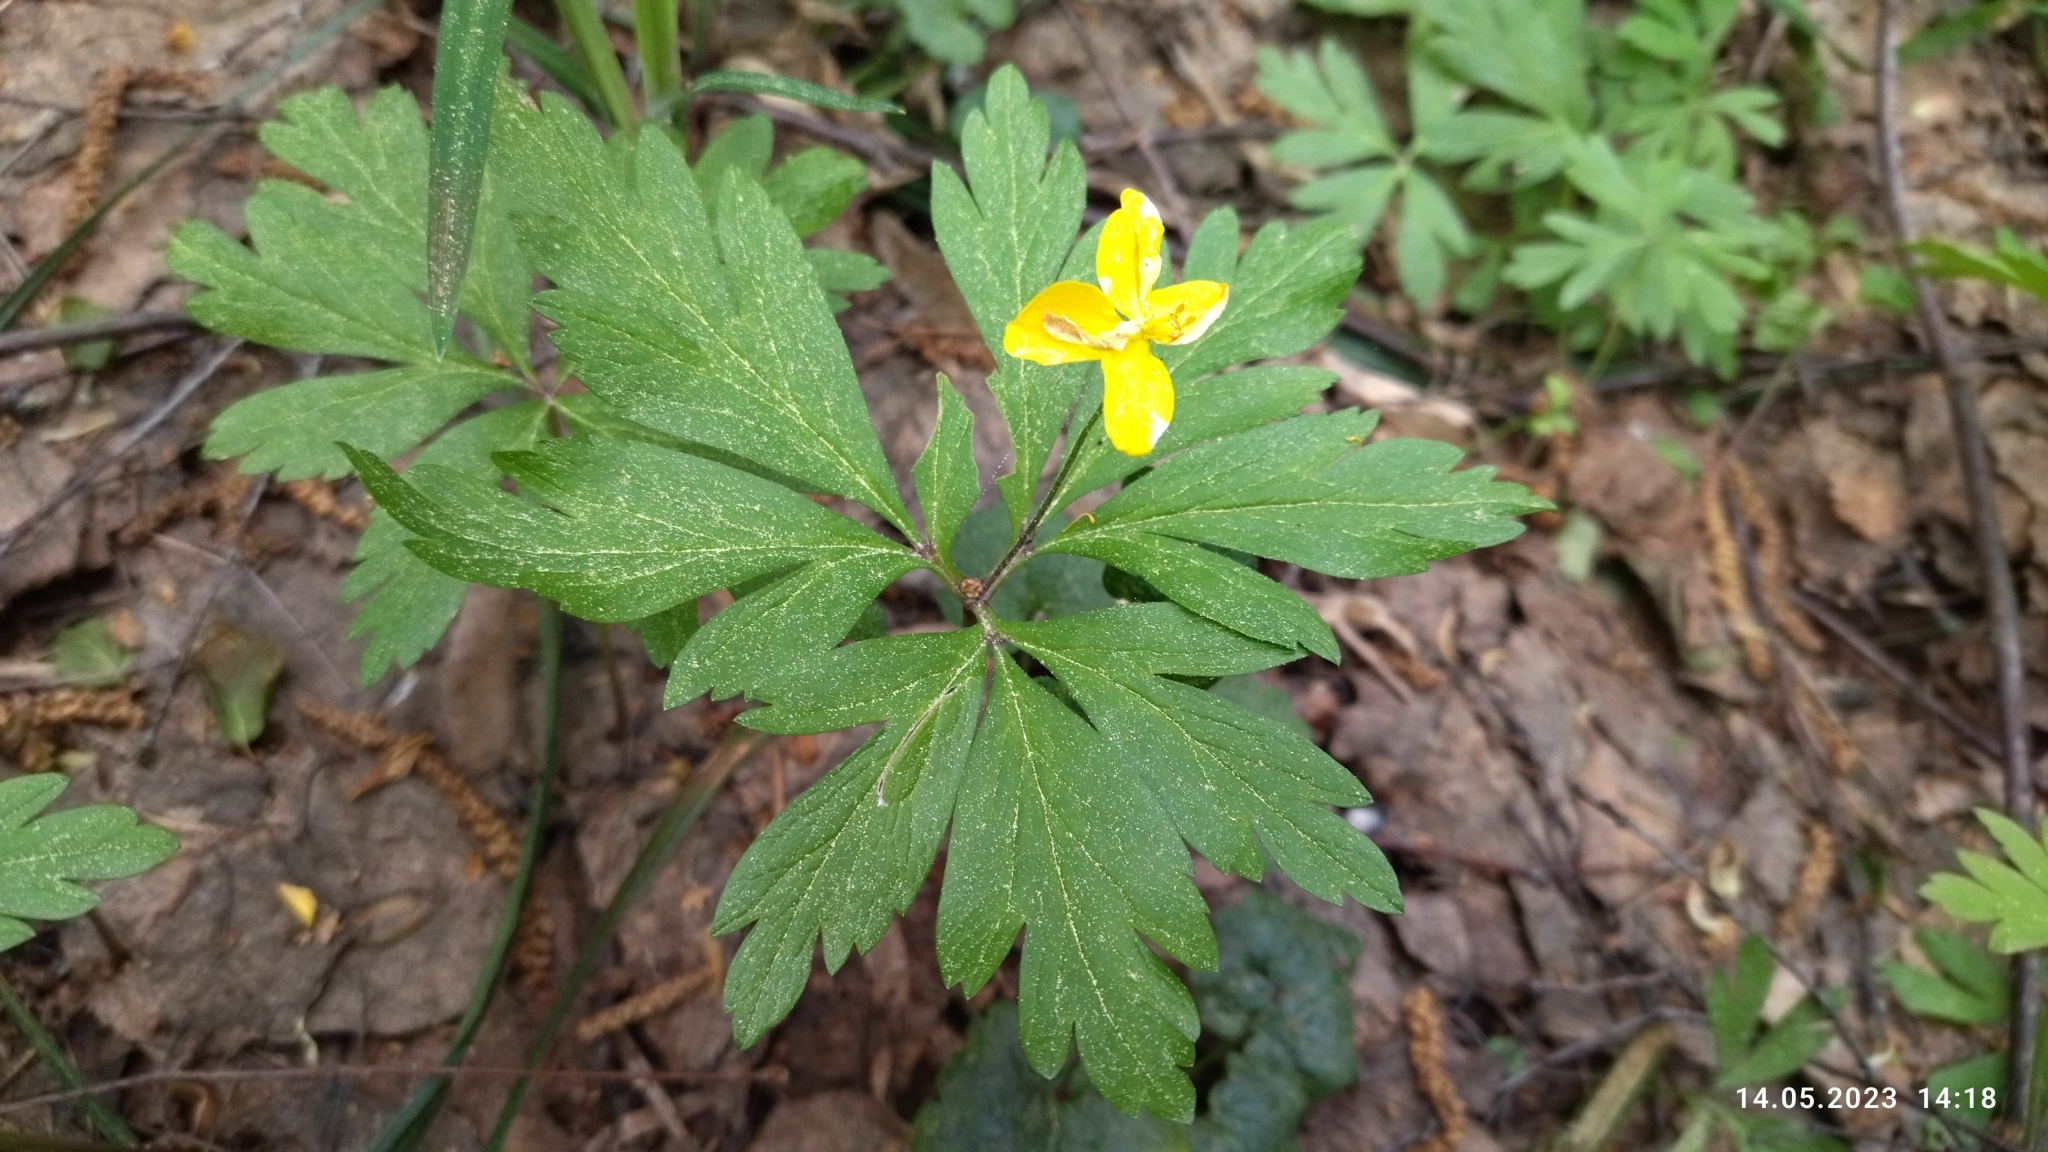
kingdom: Plantae
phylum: Tracheophyta
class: Magnoliopsida
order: Ranunculales
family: Ranunculaceae
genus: Anemone
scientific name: Anemone ranunculoides
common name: Yellow anemone
